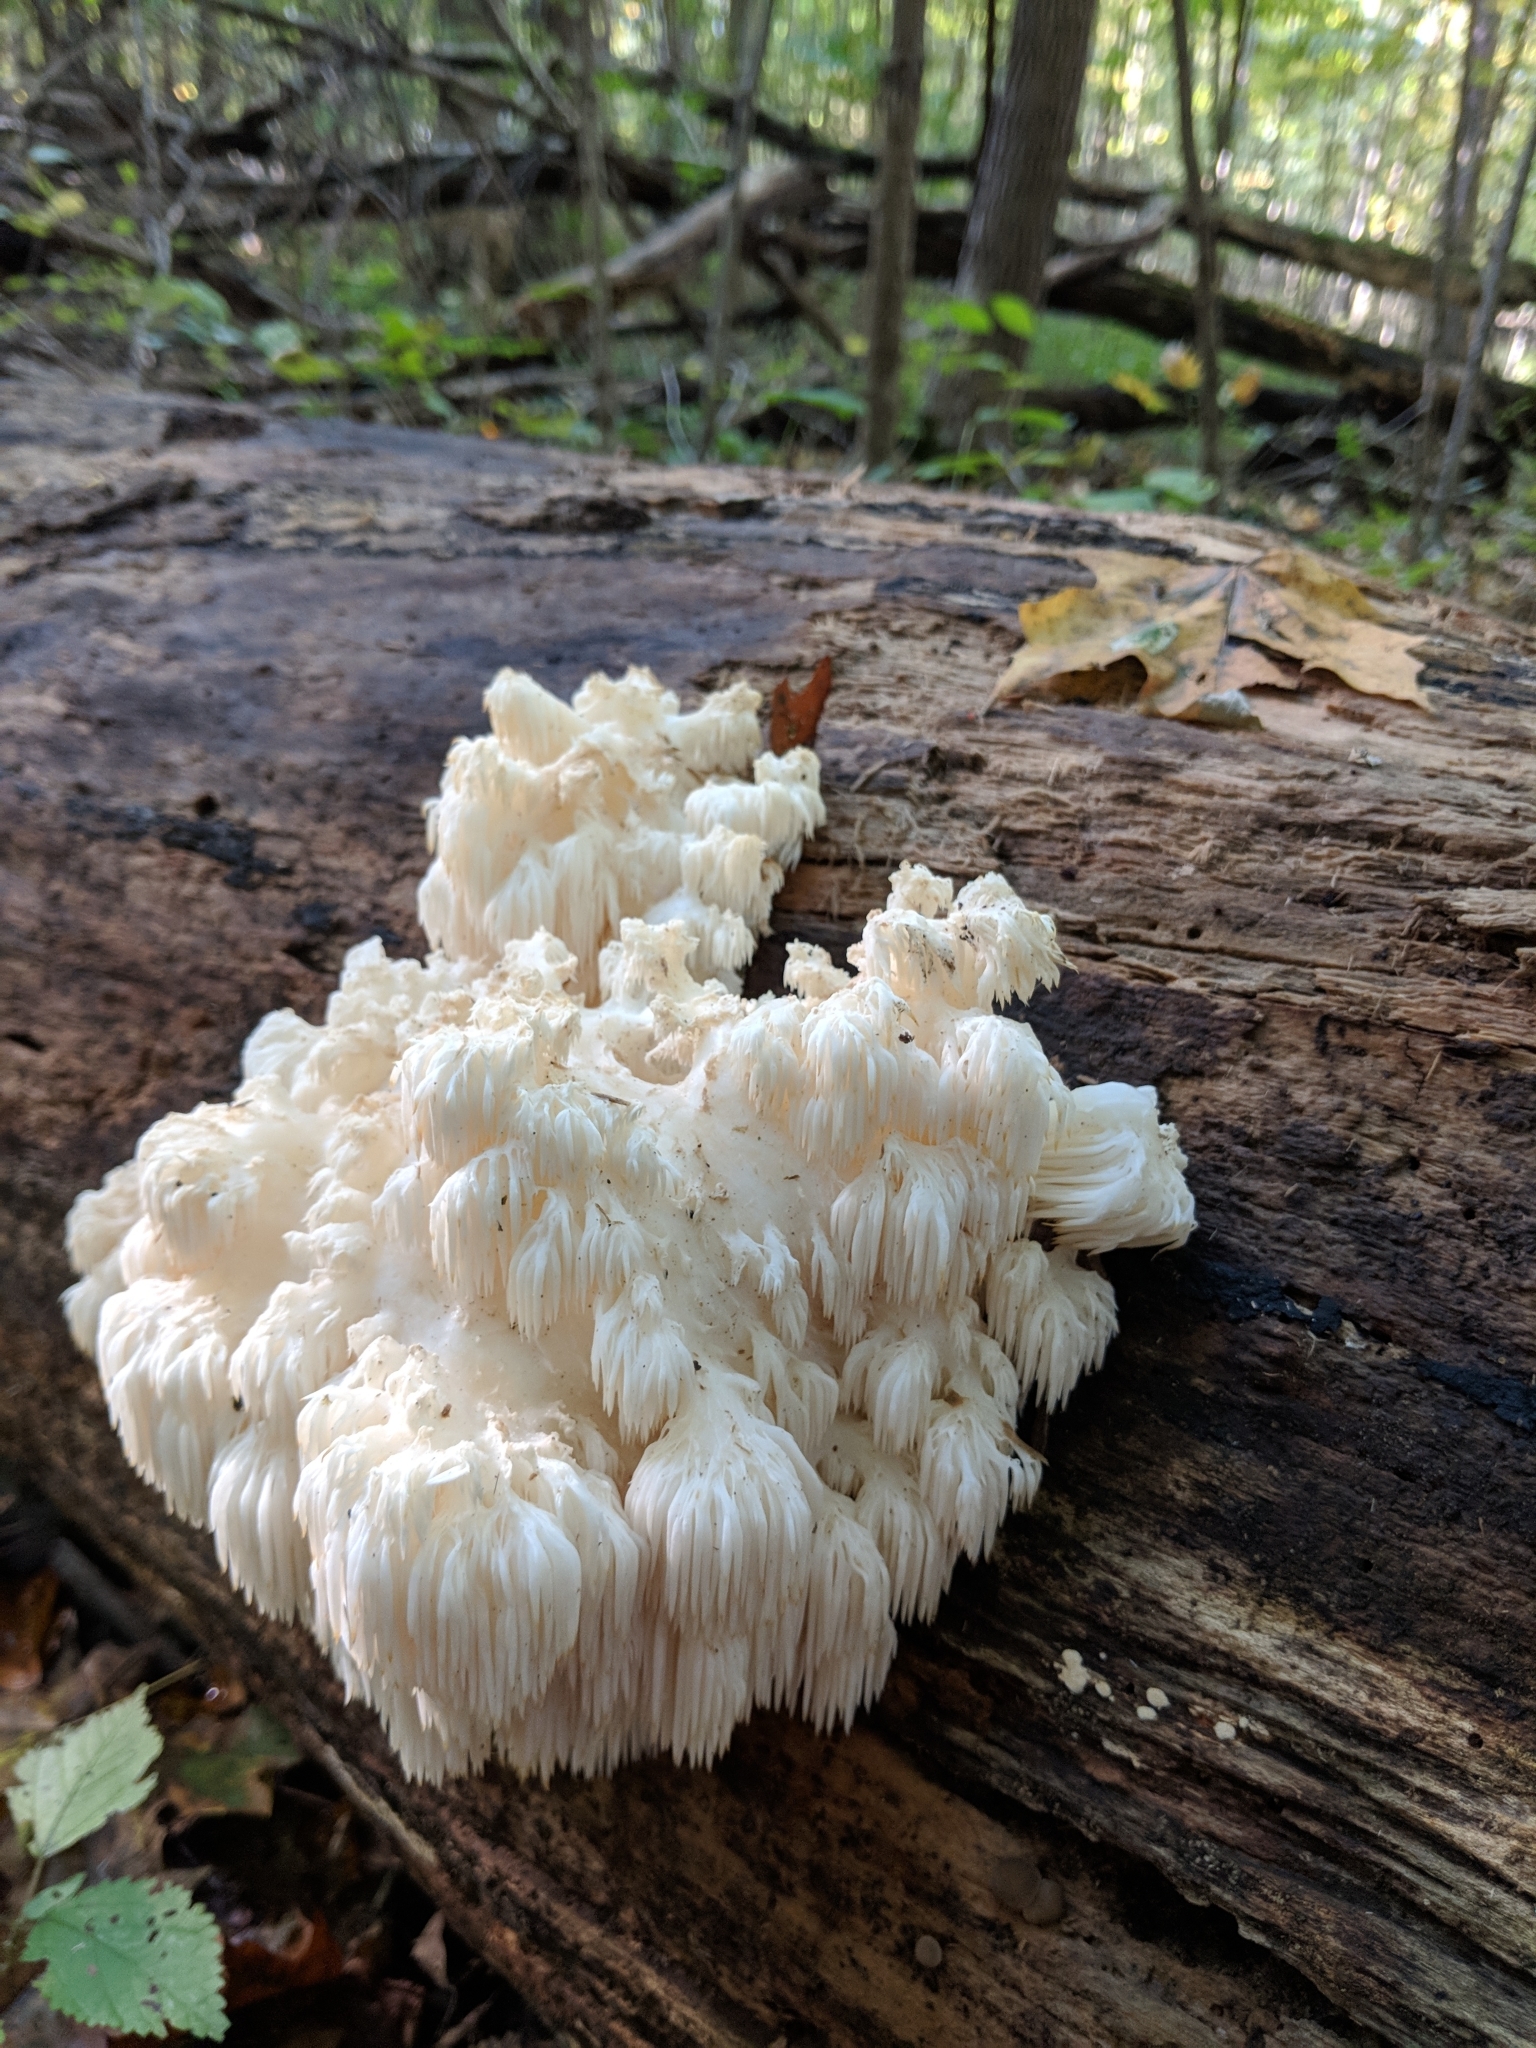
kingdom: Fungi
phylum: Basidiomycota
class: Agaricomycetes
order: Russulales
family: Hericiaceae
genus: Hericium
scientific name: Hericium americanum
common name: Bear's head tooth
